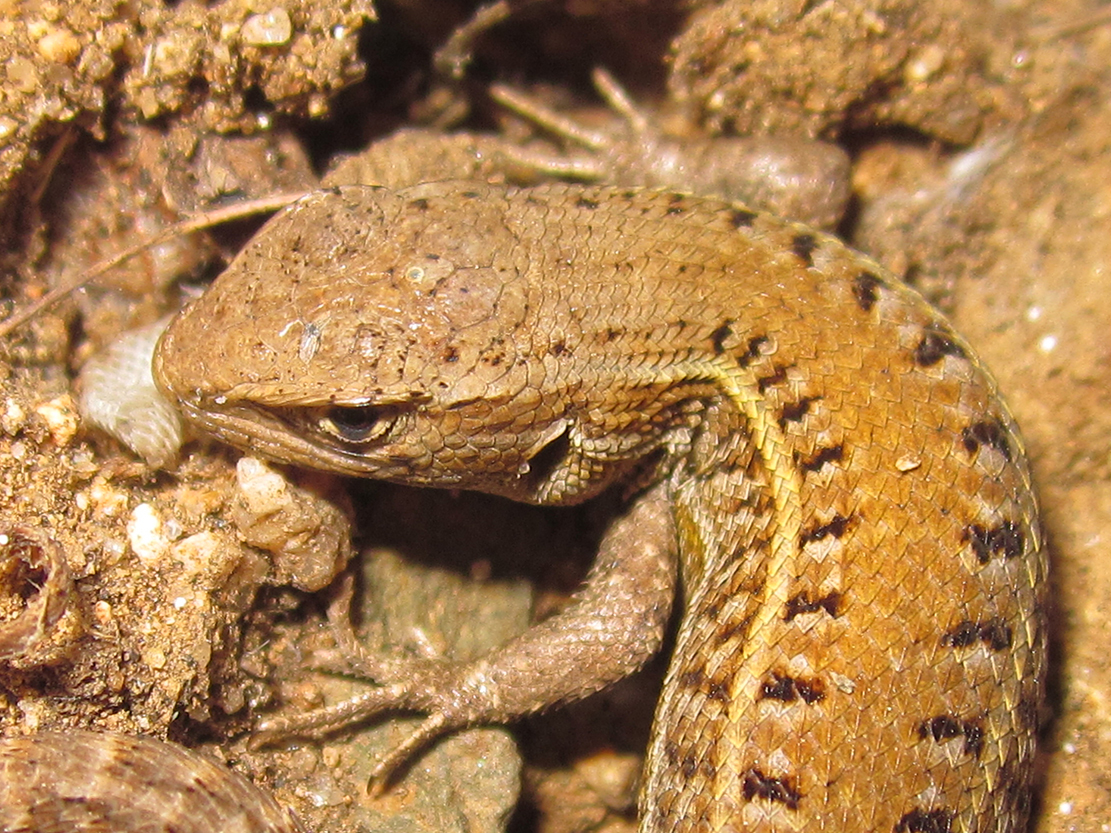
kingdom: Animalia
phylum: Chordata
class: Squamata
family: Liolaemidae
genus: Liolaemus
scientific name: Liolaemus lemniscatus
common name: Wreath tree iguana
